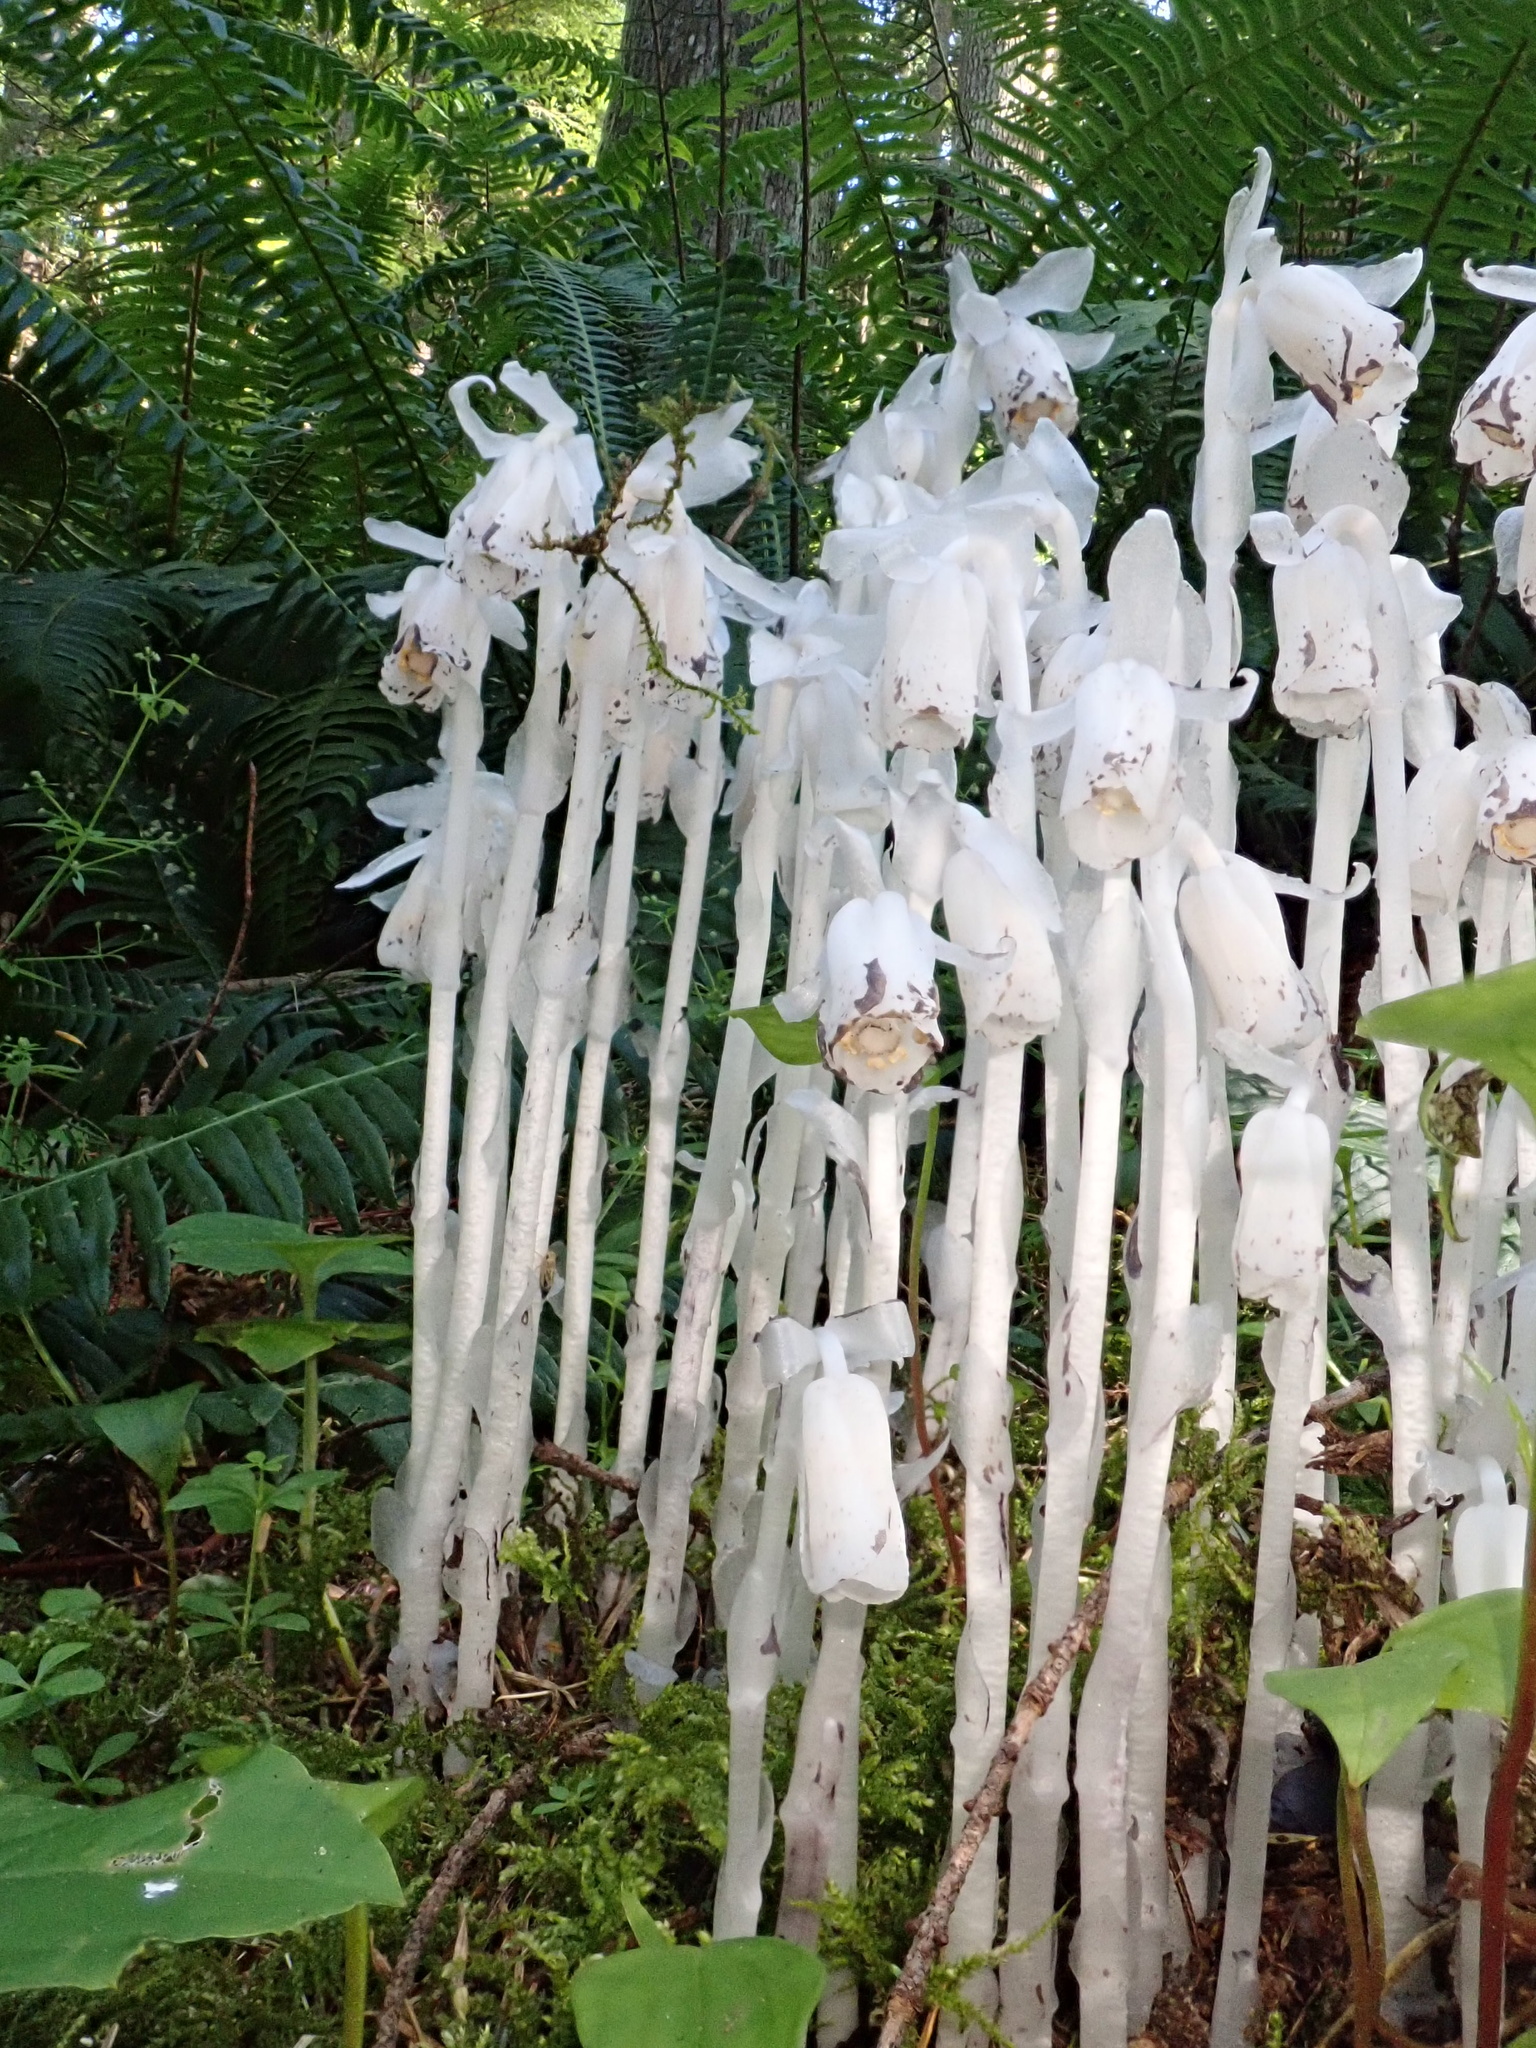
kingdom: Plantae
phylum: Tracheophyta
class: Magnoliopsida
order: Ericales
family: Ericaceae
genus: Monotropa
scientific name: Monotropa uniflora
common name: Convulsion root
